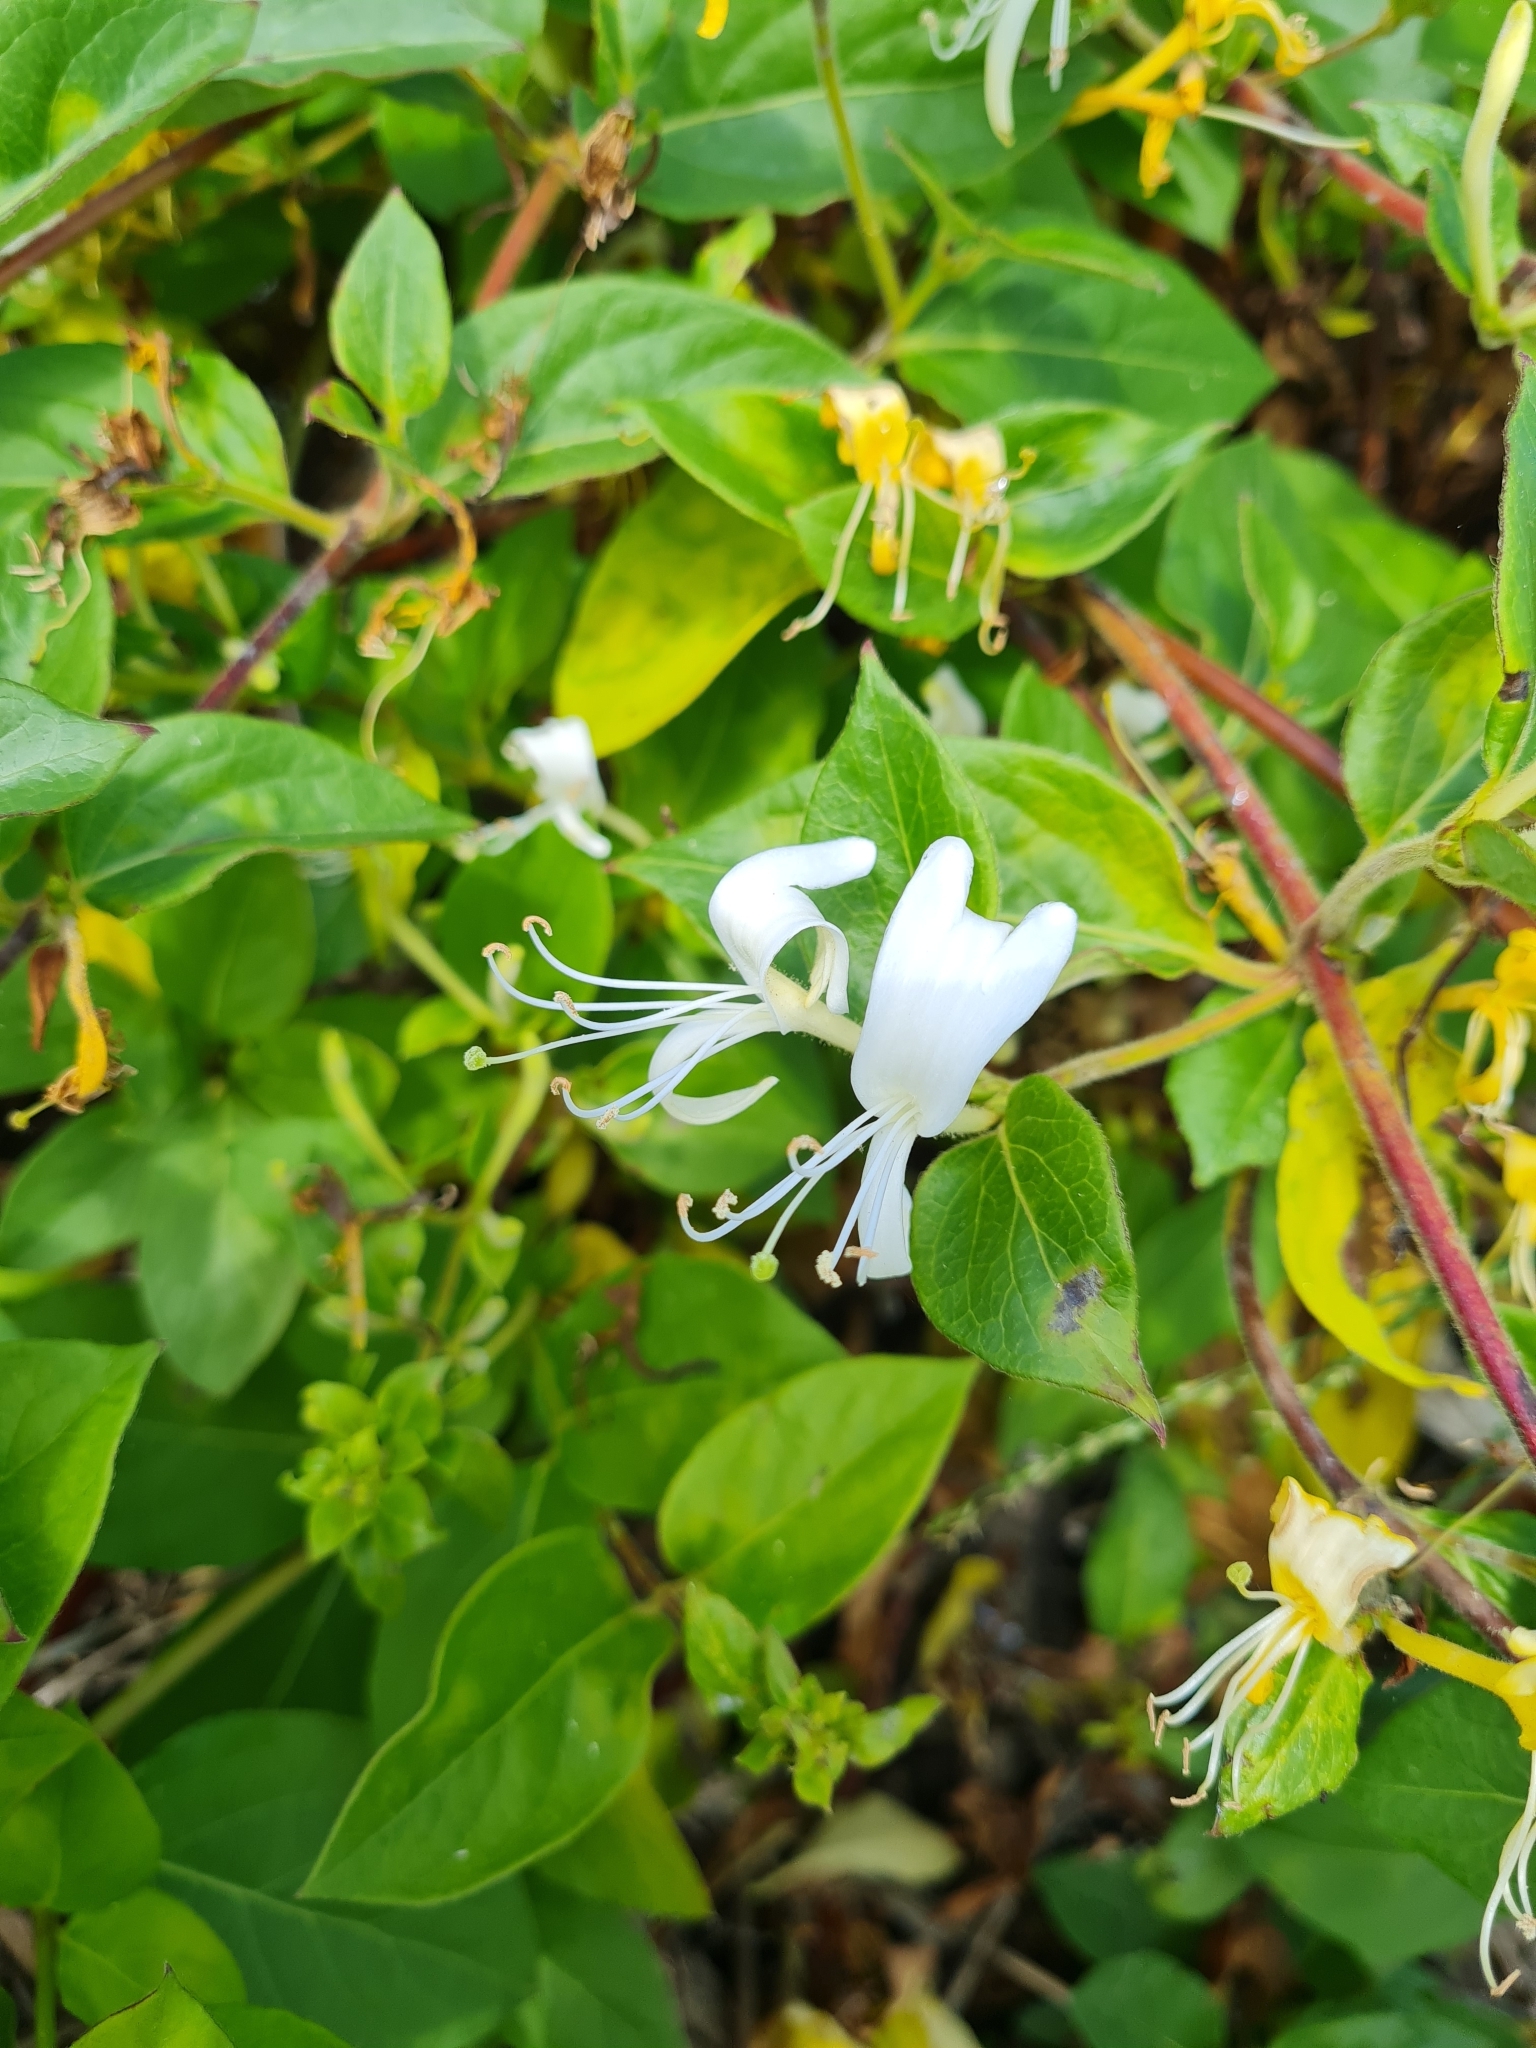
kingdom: Plantae
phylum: Tracheophyta
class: Magnoliopsida
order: Dipsacales
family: Caprifoliaceae
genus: Lonicera
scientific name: Lonicera japonica
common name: Japanese honeysuckle
